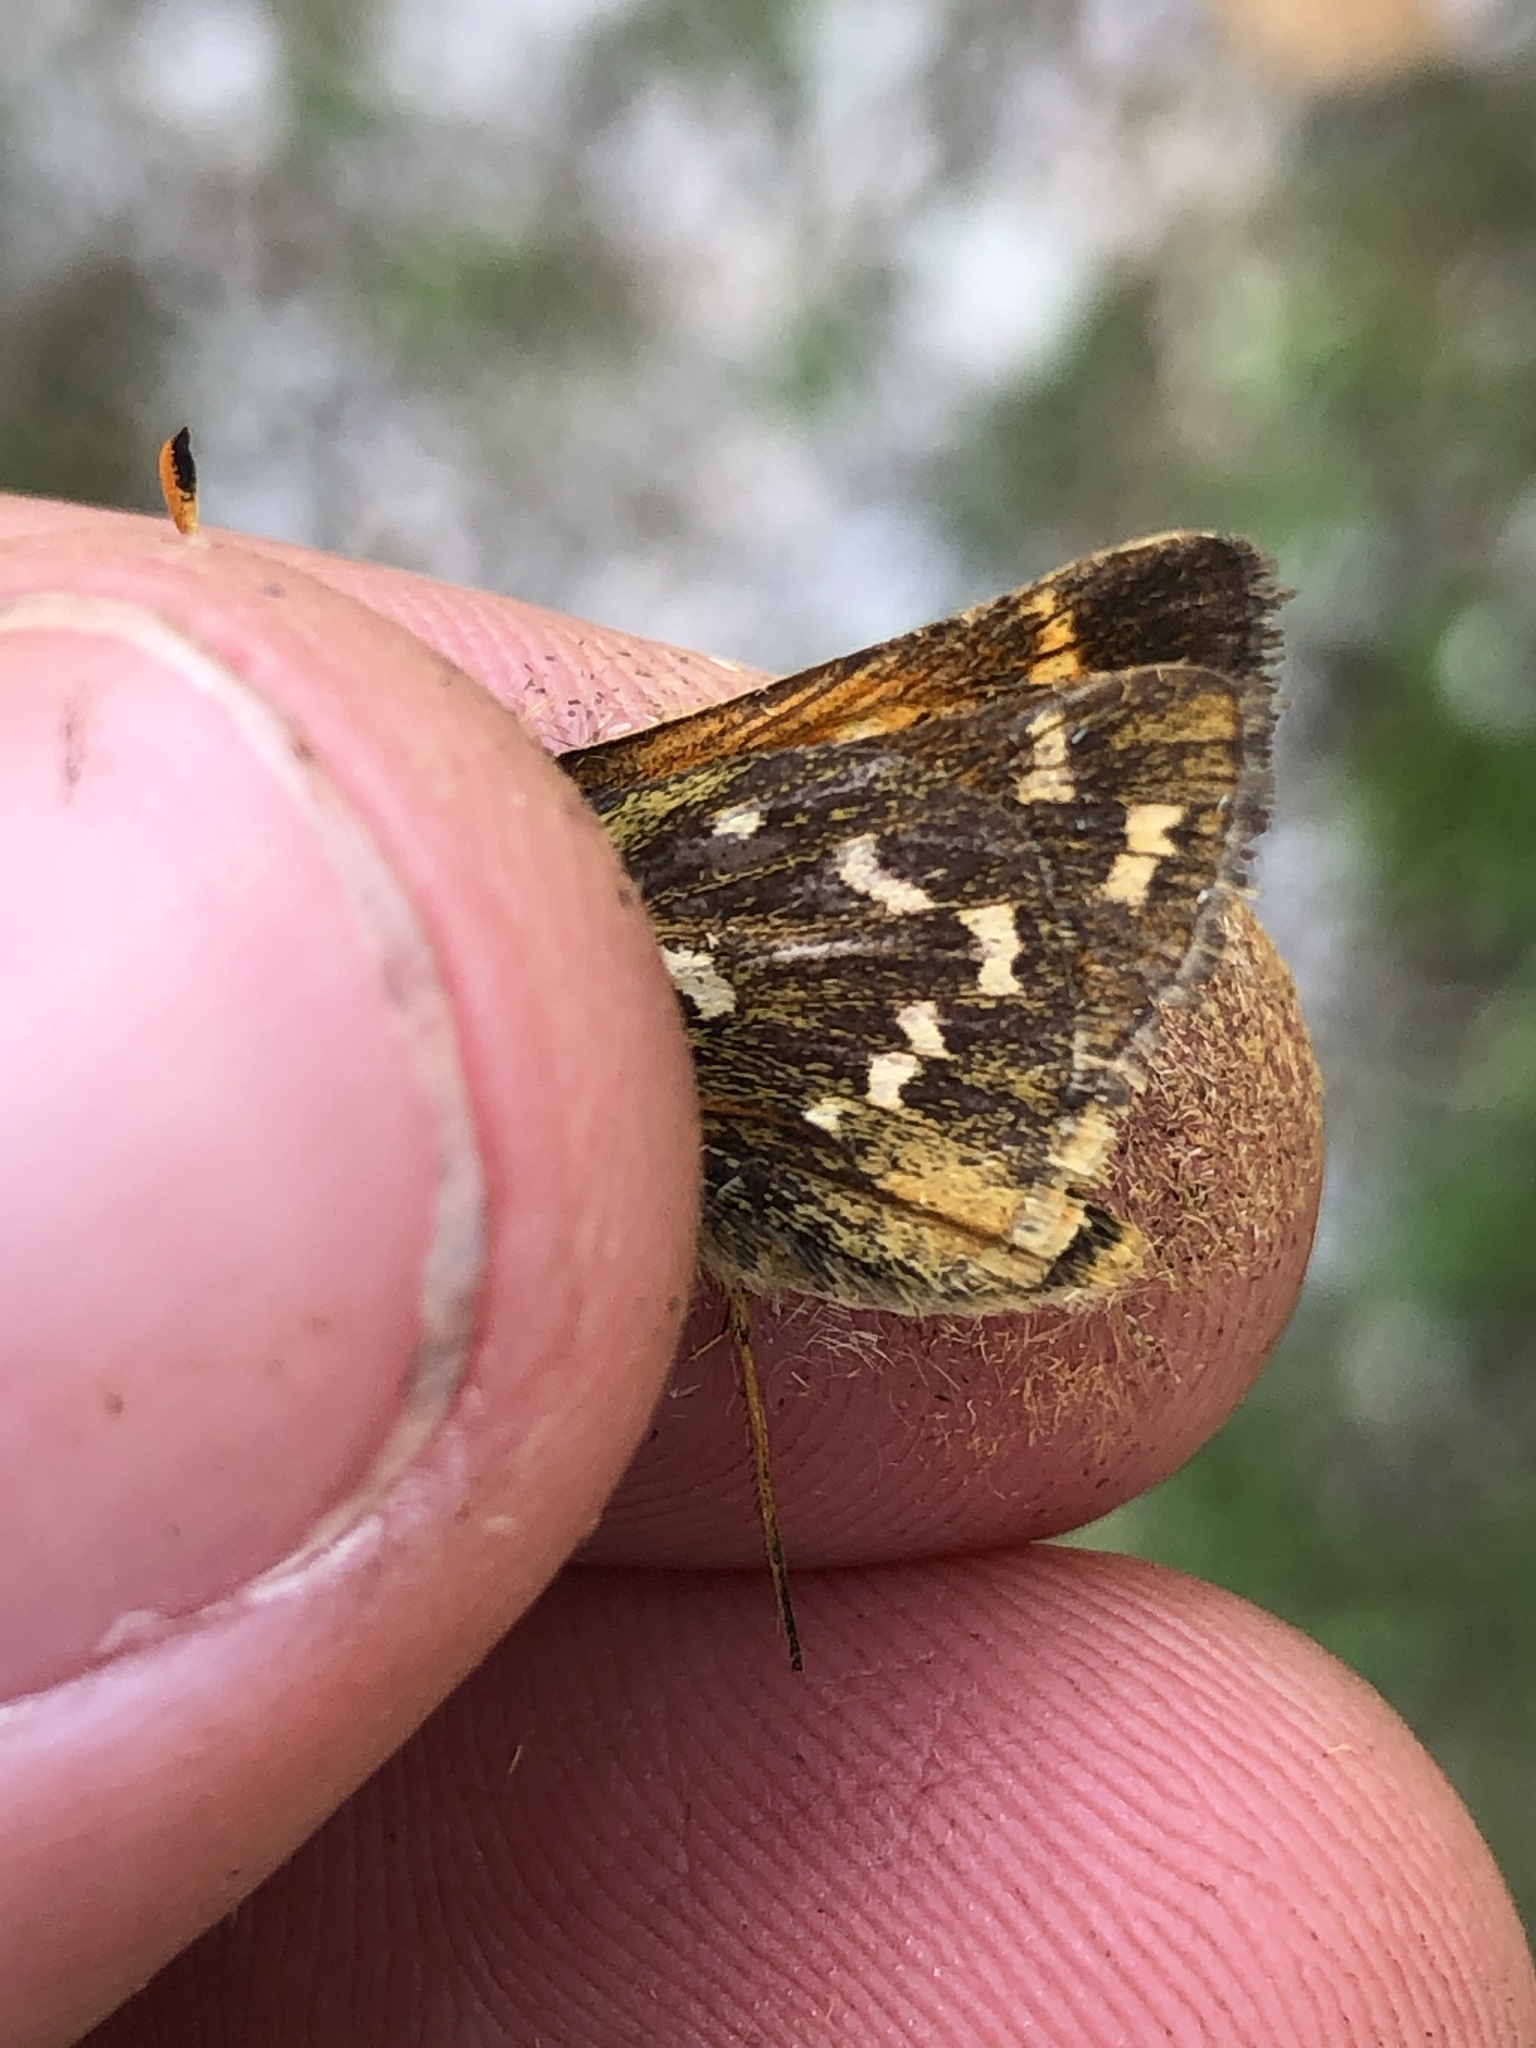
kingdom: Animalia
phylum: Arthropoda
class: Insecta
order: Lepidoptera
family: Hesperiidae
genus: Hesperia
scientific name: Hesperia comma
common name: Common branded skipper
